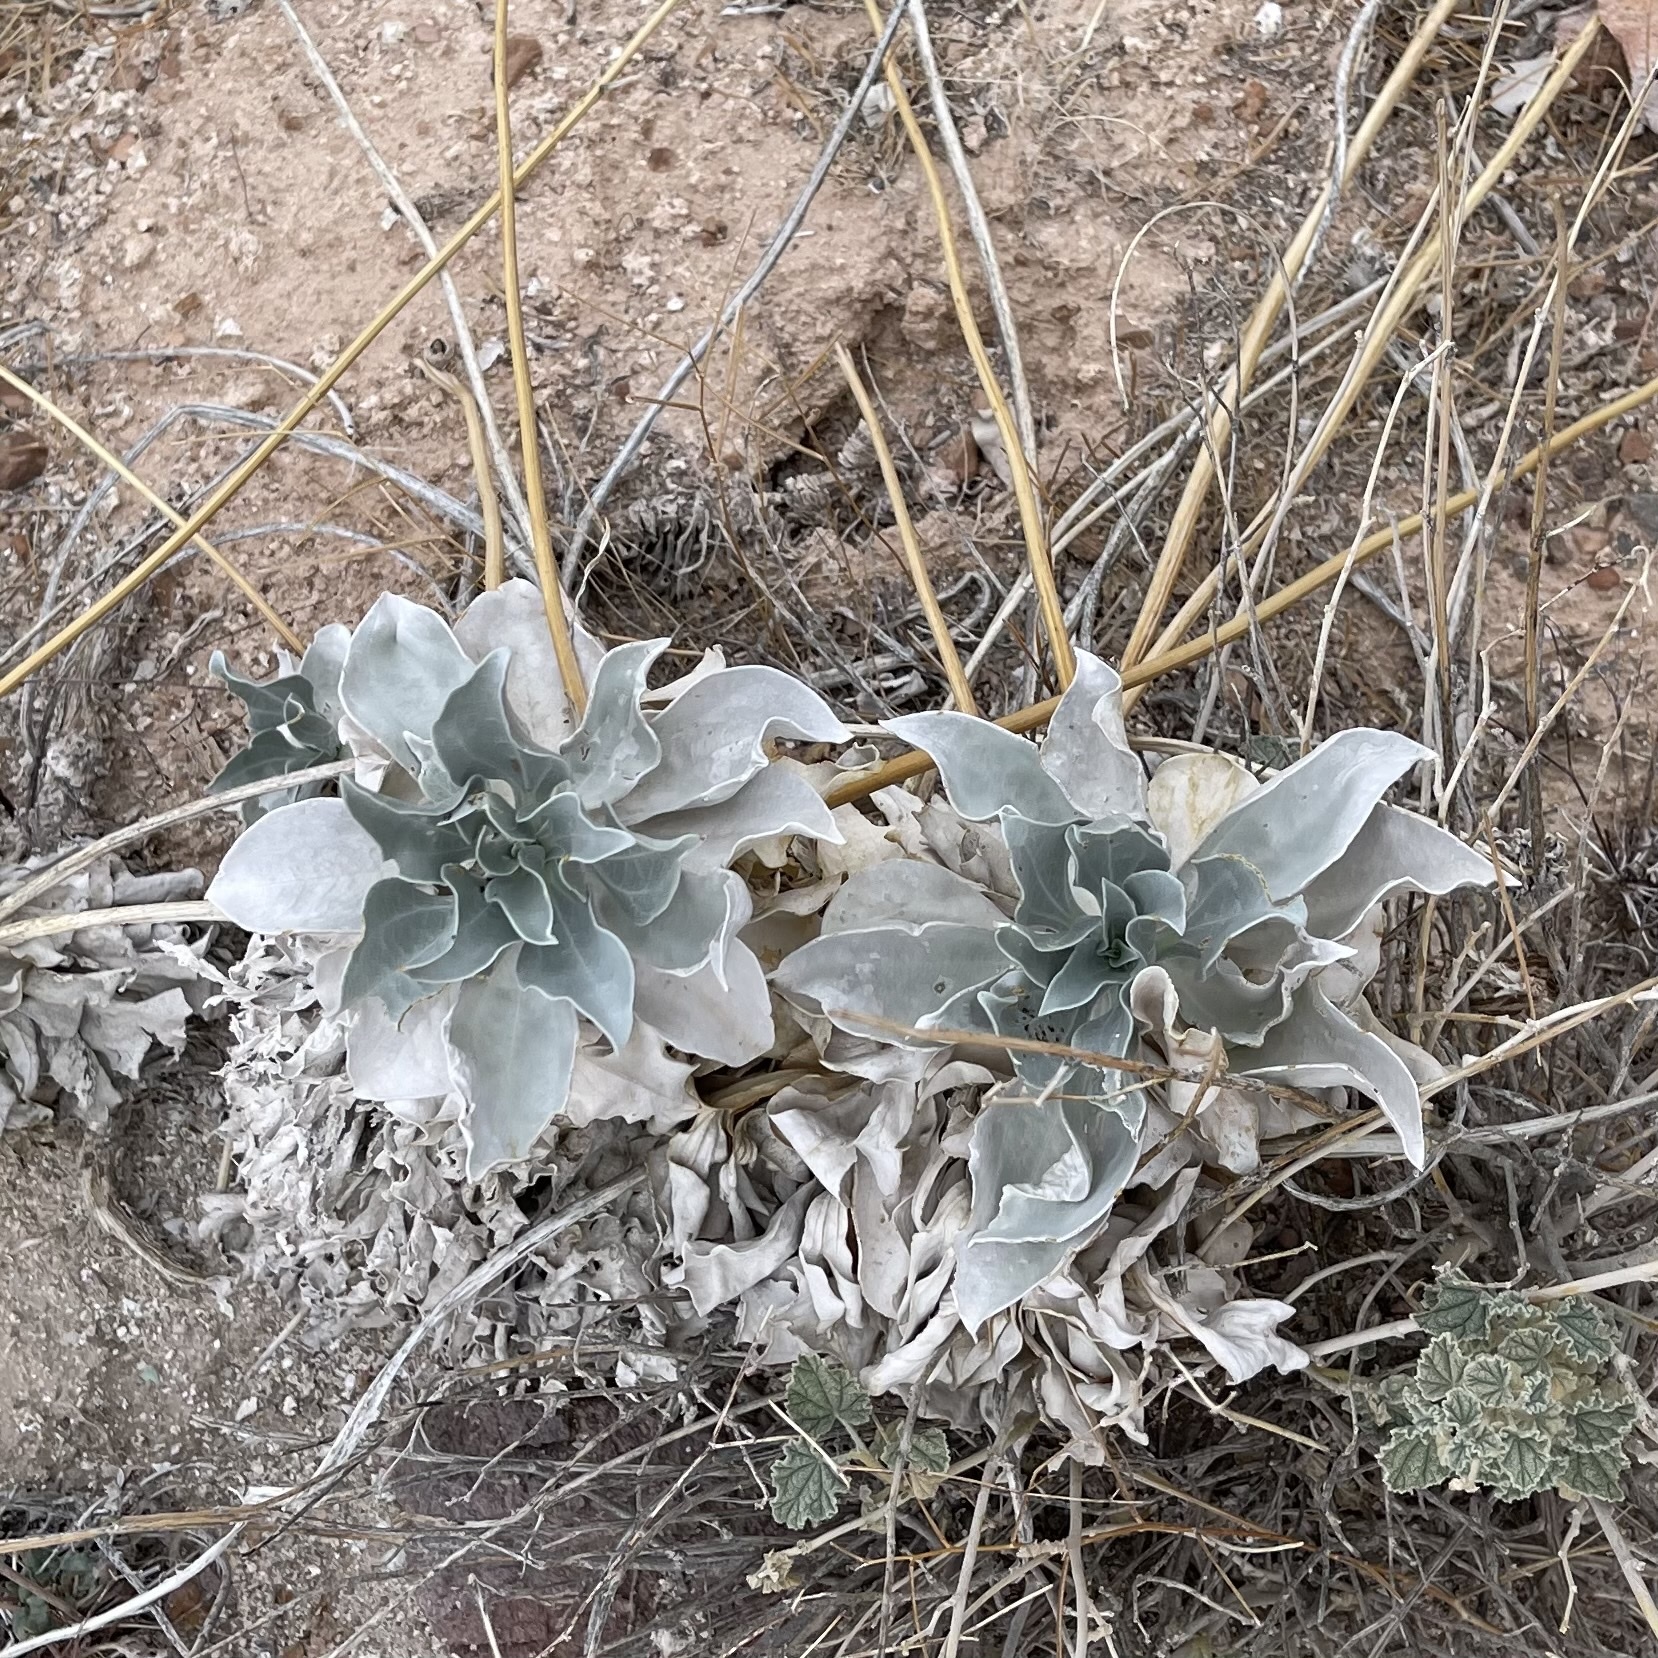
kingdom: Plantae
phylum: Tracheophyta
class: Magnoliopsida
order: Asterales
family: Asteraceae
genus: Encelia
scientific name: Encelia farinosa
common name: Brittlebush
